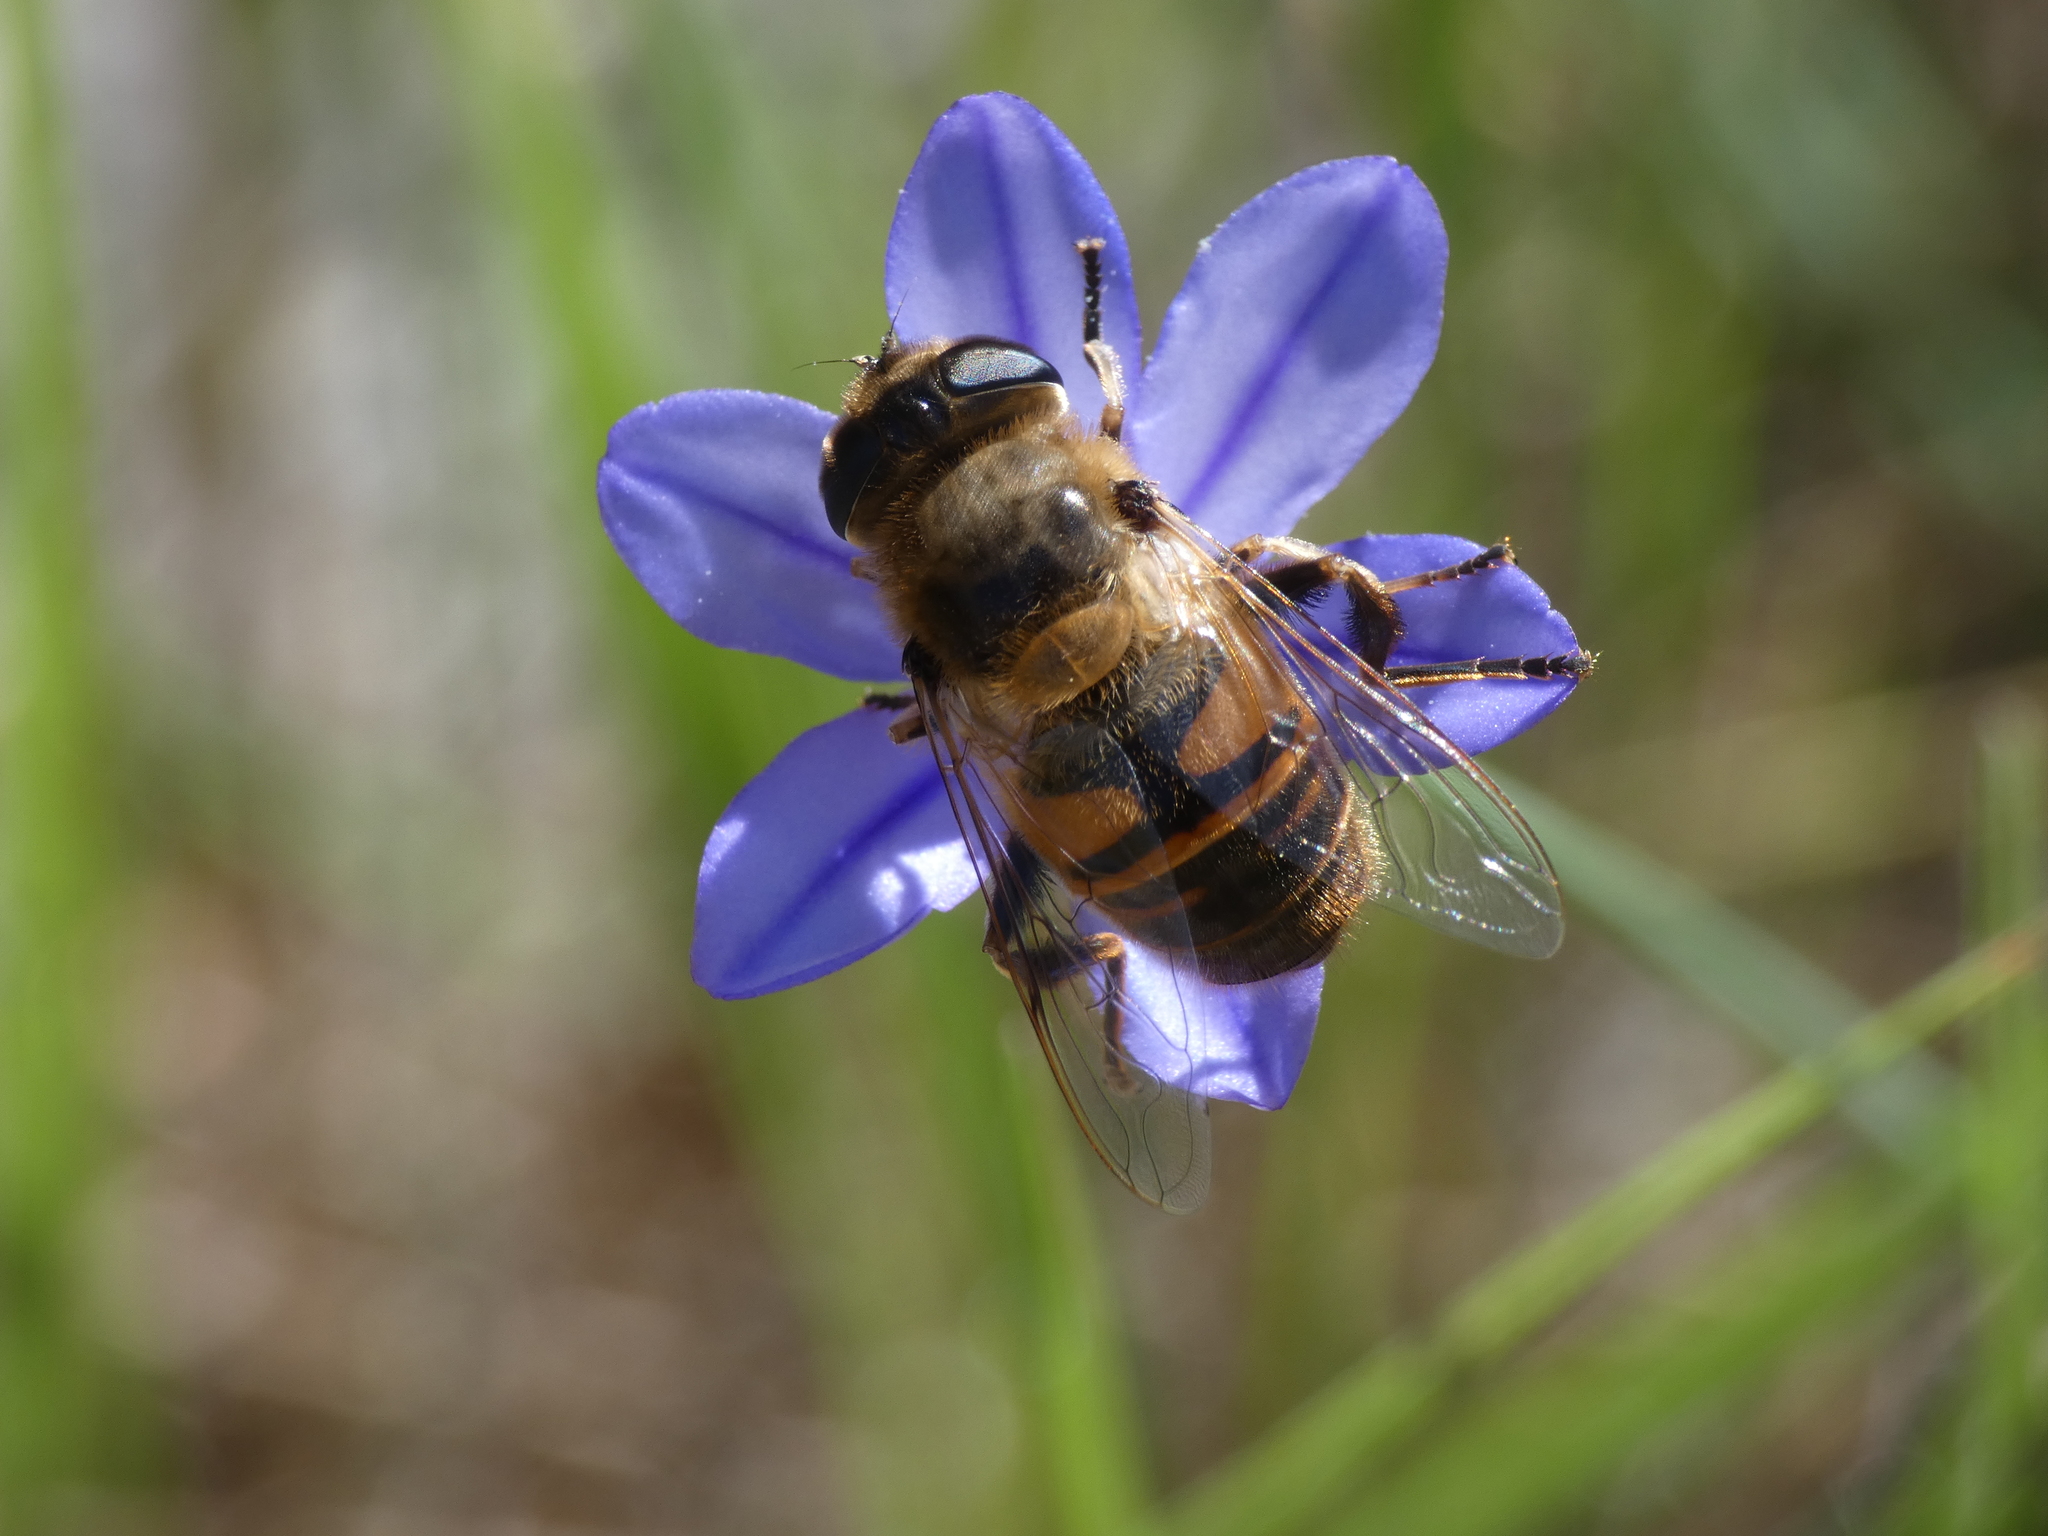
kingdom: Animalia
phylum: Arthropoda
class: Insecta
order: Diptera
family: Syrphidae
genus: Eristalis
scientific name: Eristalis tenax
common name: Drone fly
